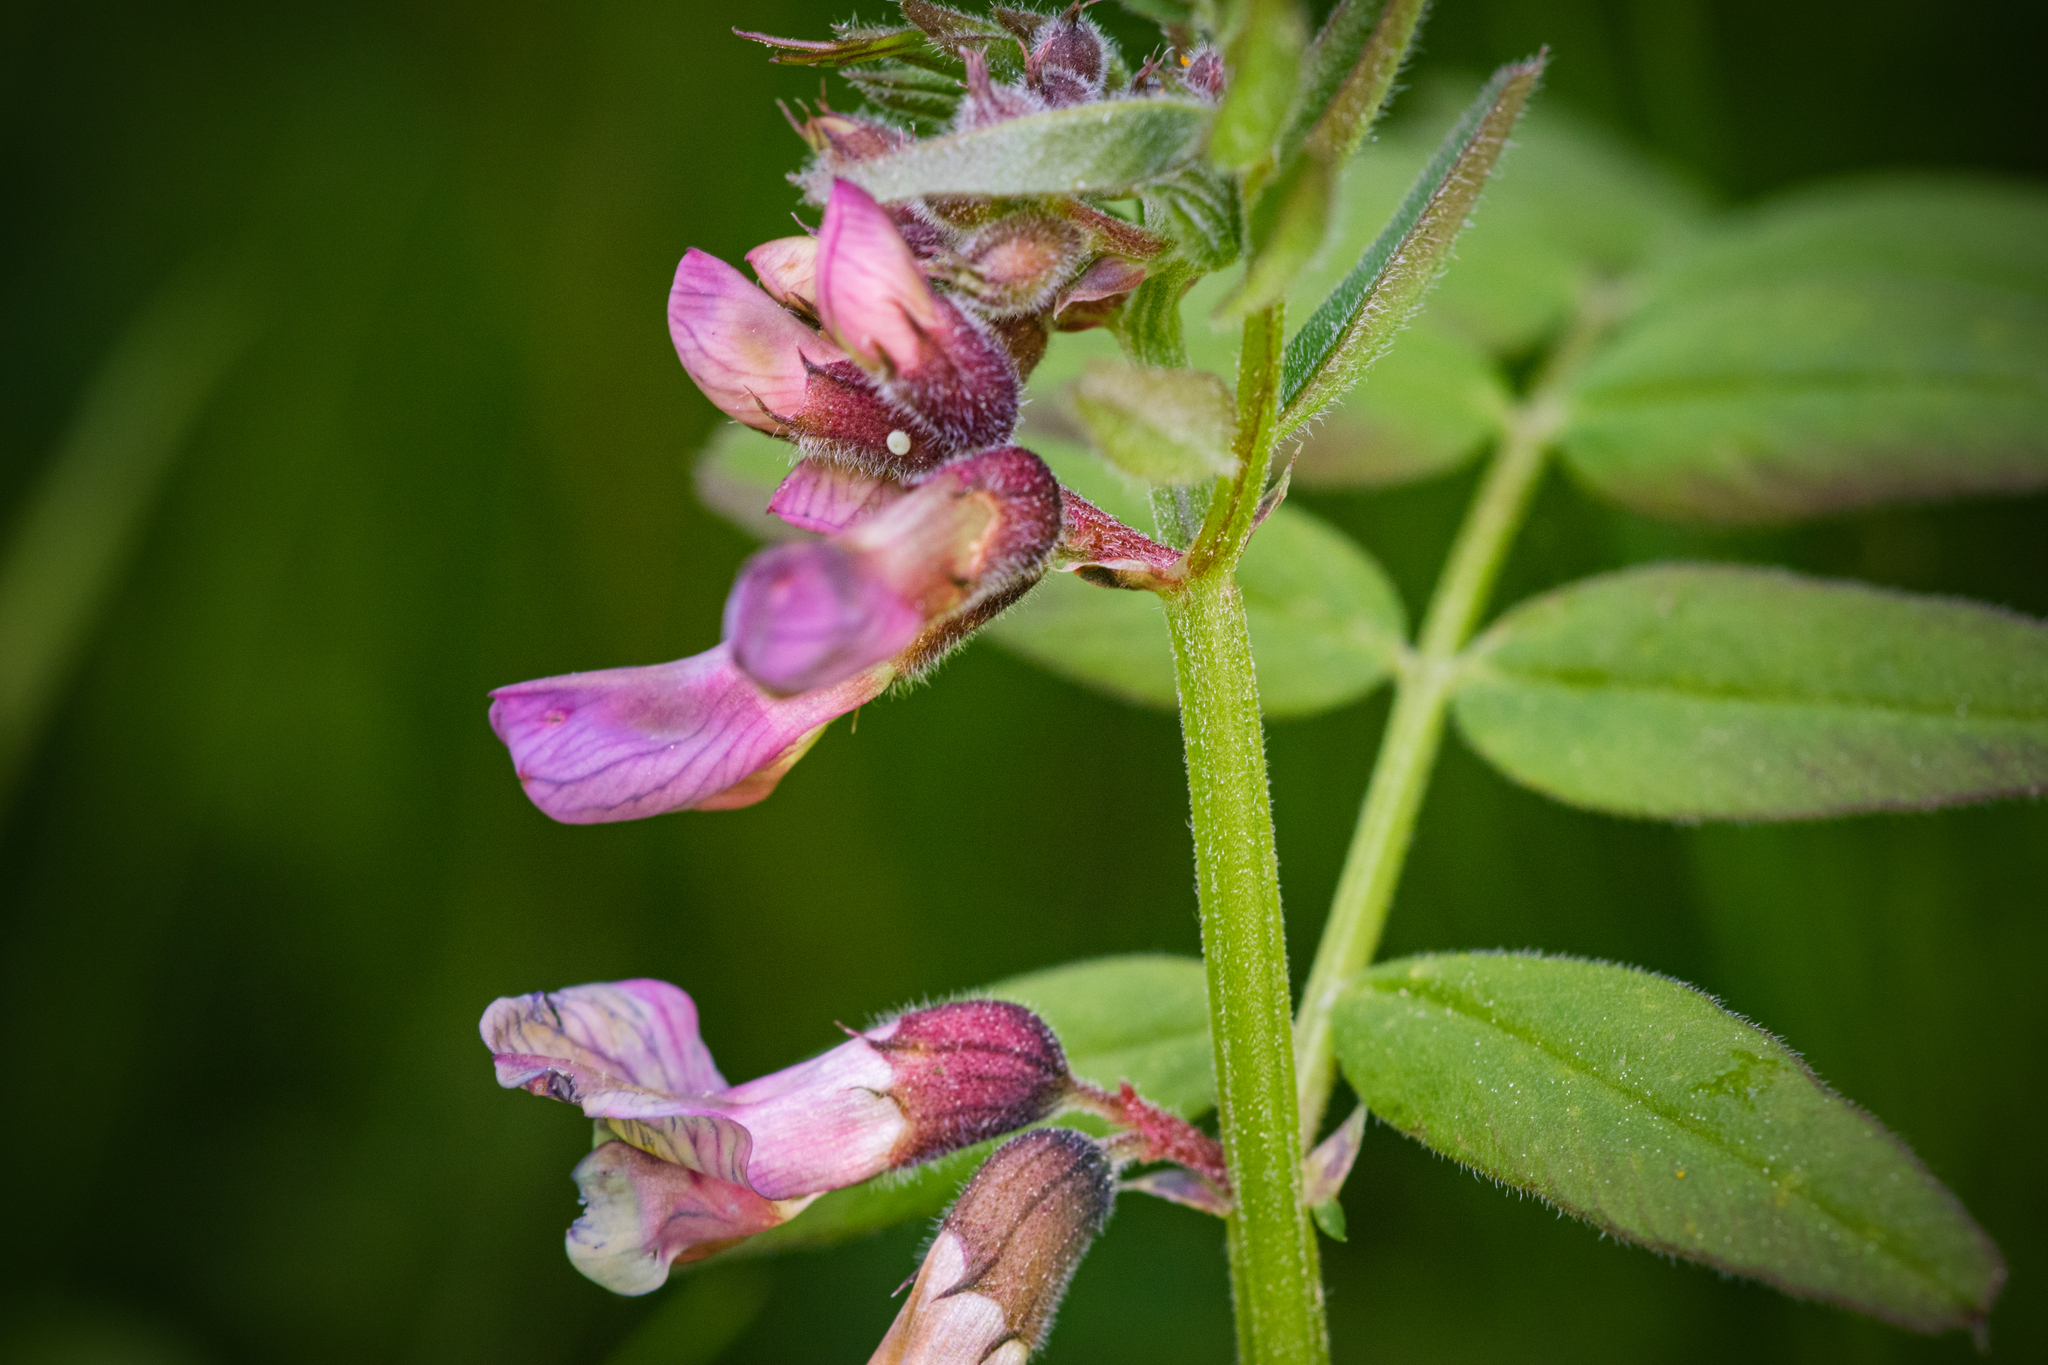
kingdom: Plantae
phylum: Tracheophyta
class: Magnoliopsida
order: Fabales
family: Fabaceae
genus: Vicia
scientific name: Vicia sepium
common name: Bush vetch
